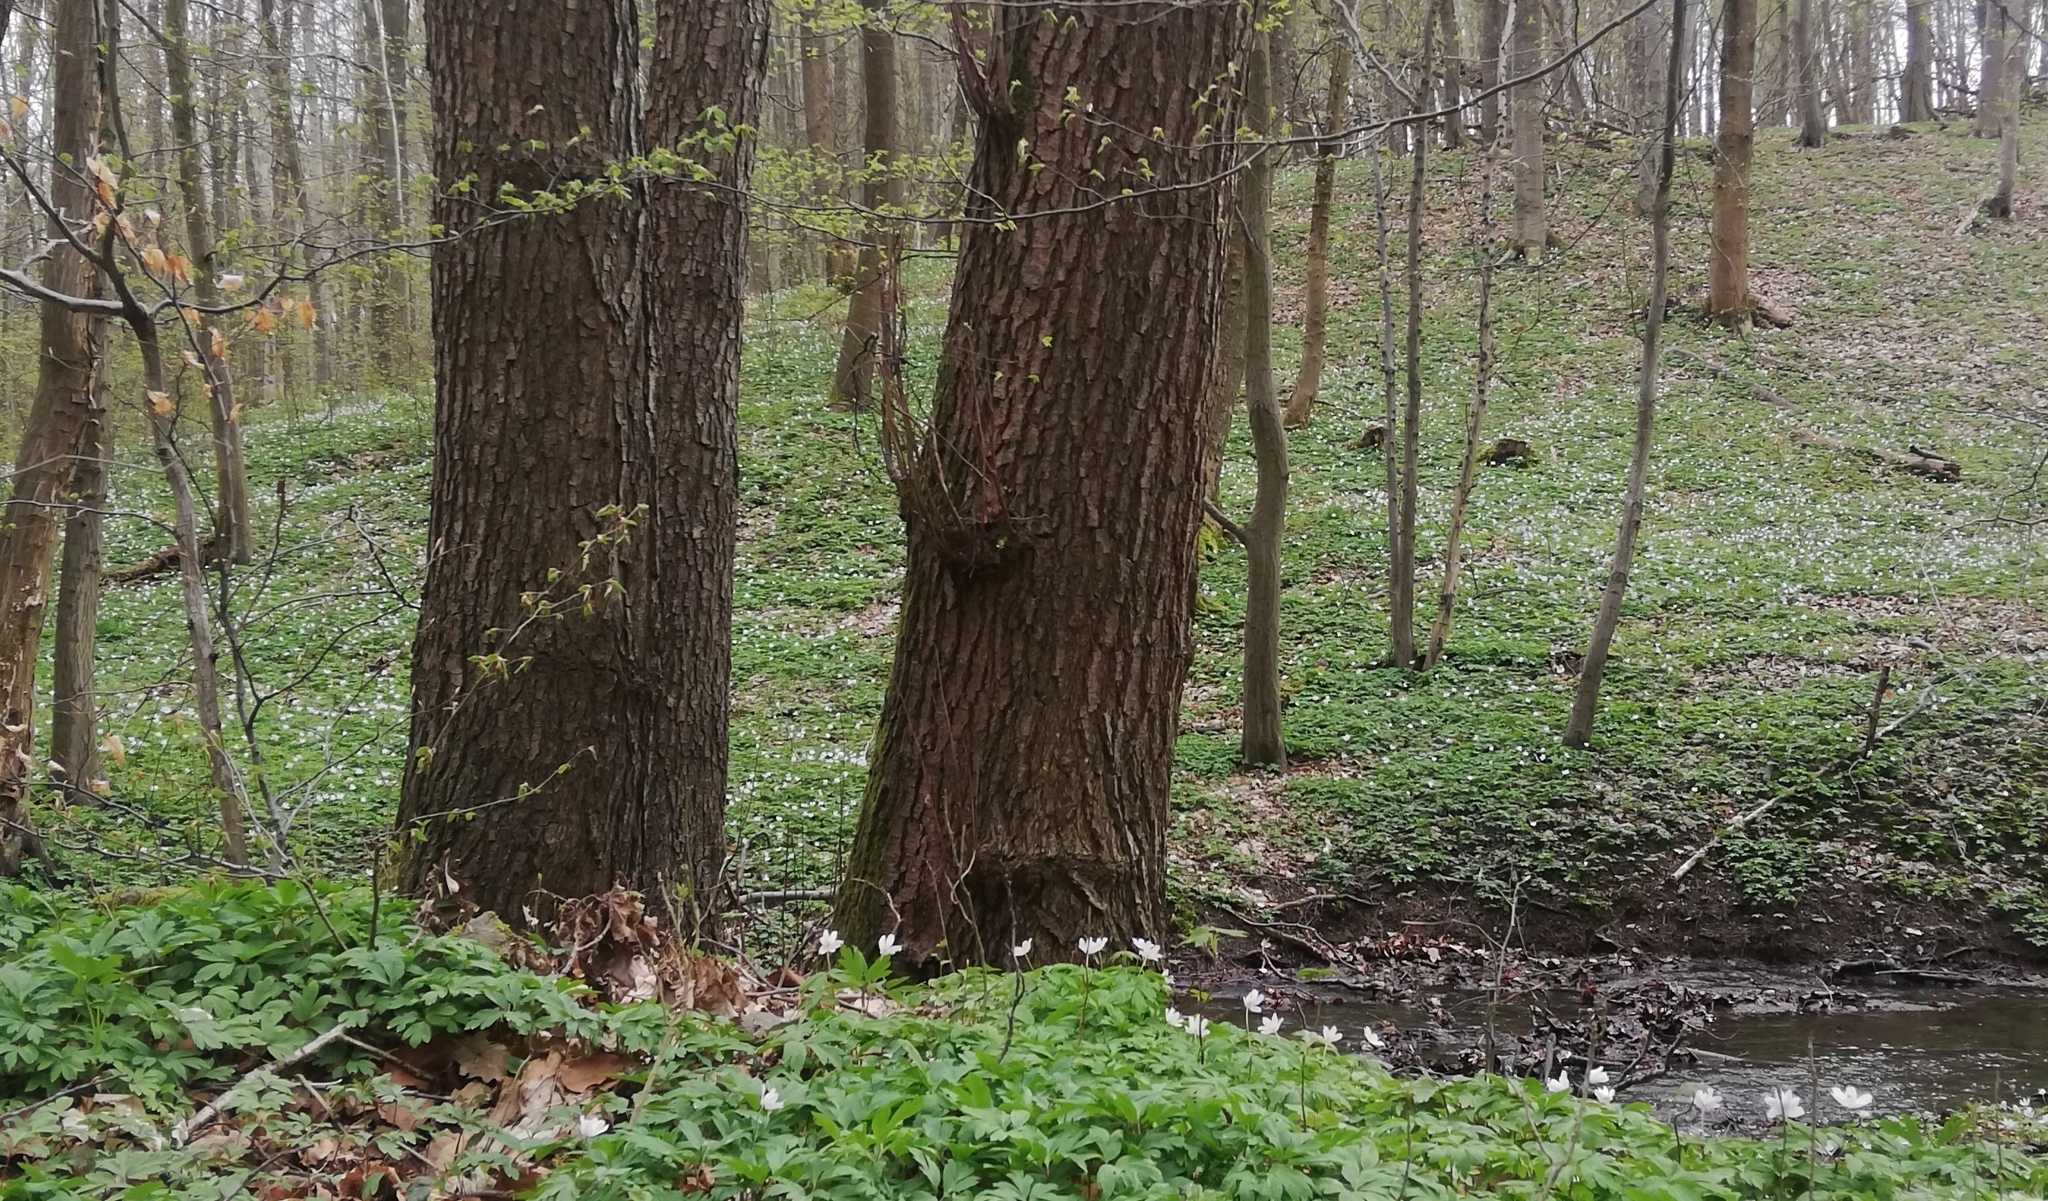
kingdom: Plantae
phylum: Tracheophyta
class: Magnoliopsida
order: Ranunculales
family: Ranunculaceae
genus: Anemone
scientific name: Anemone nemorosa
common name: Wood anemone
